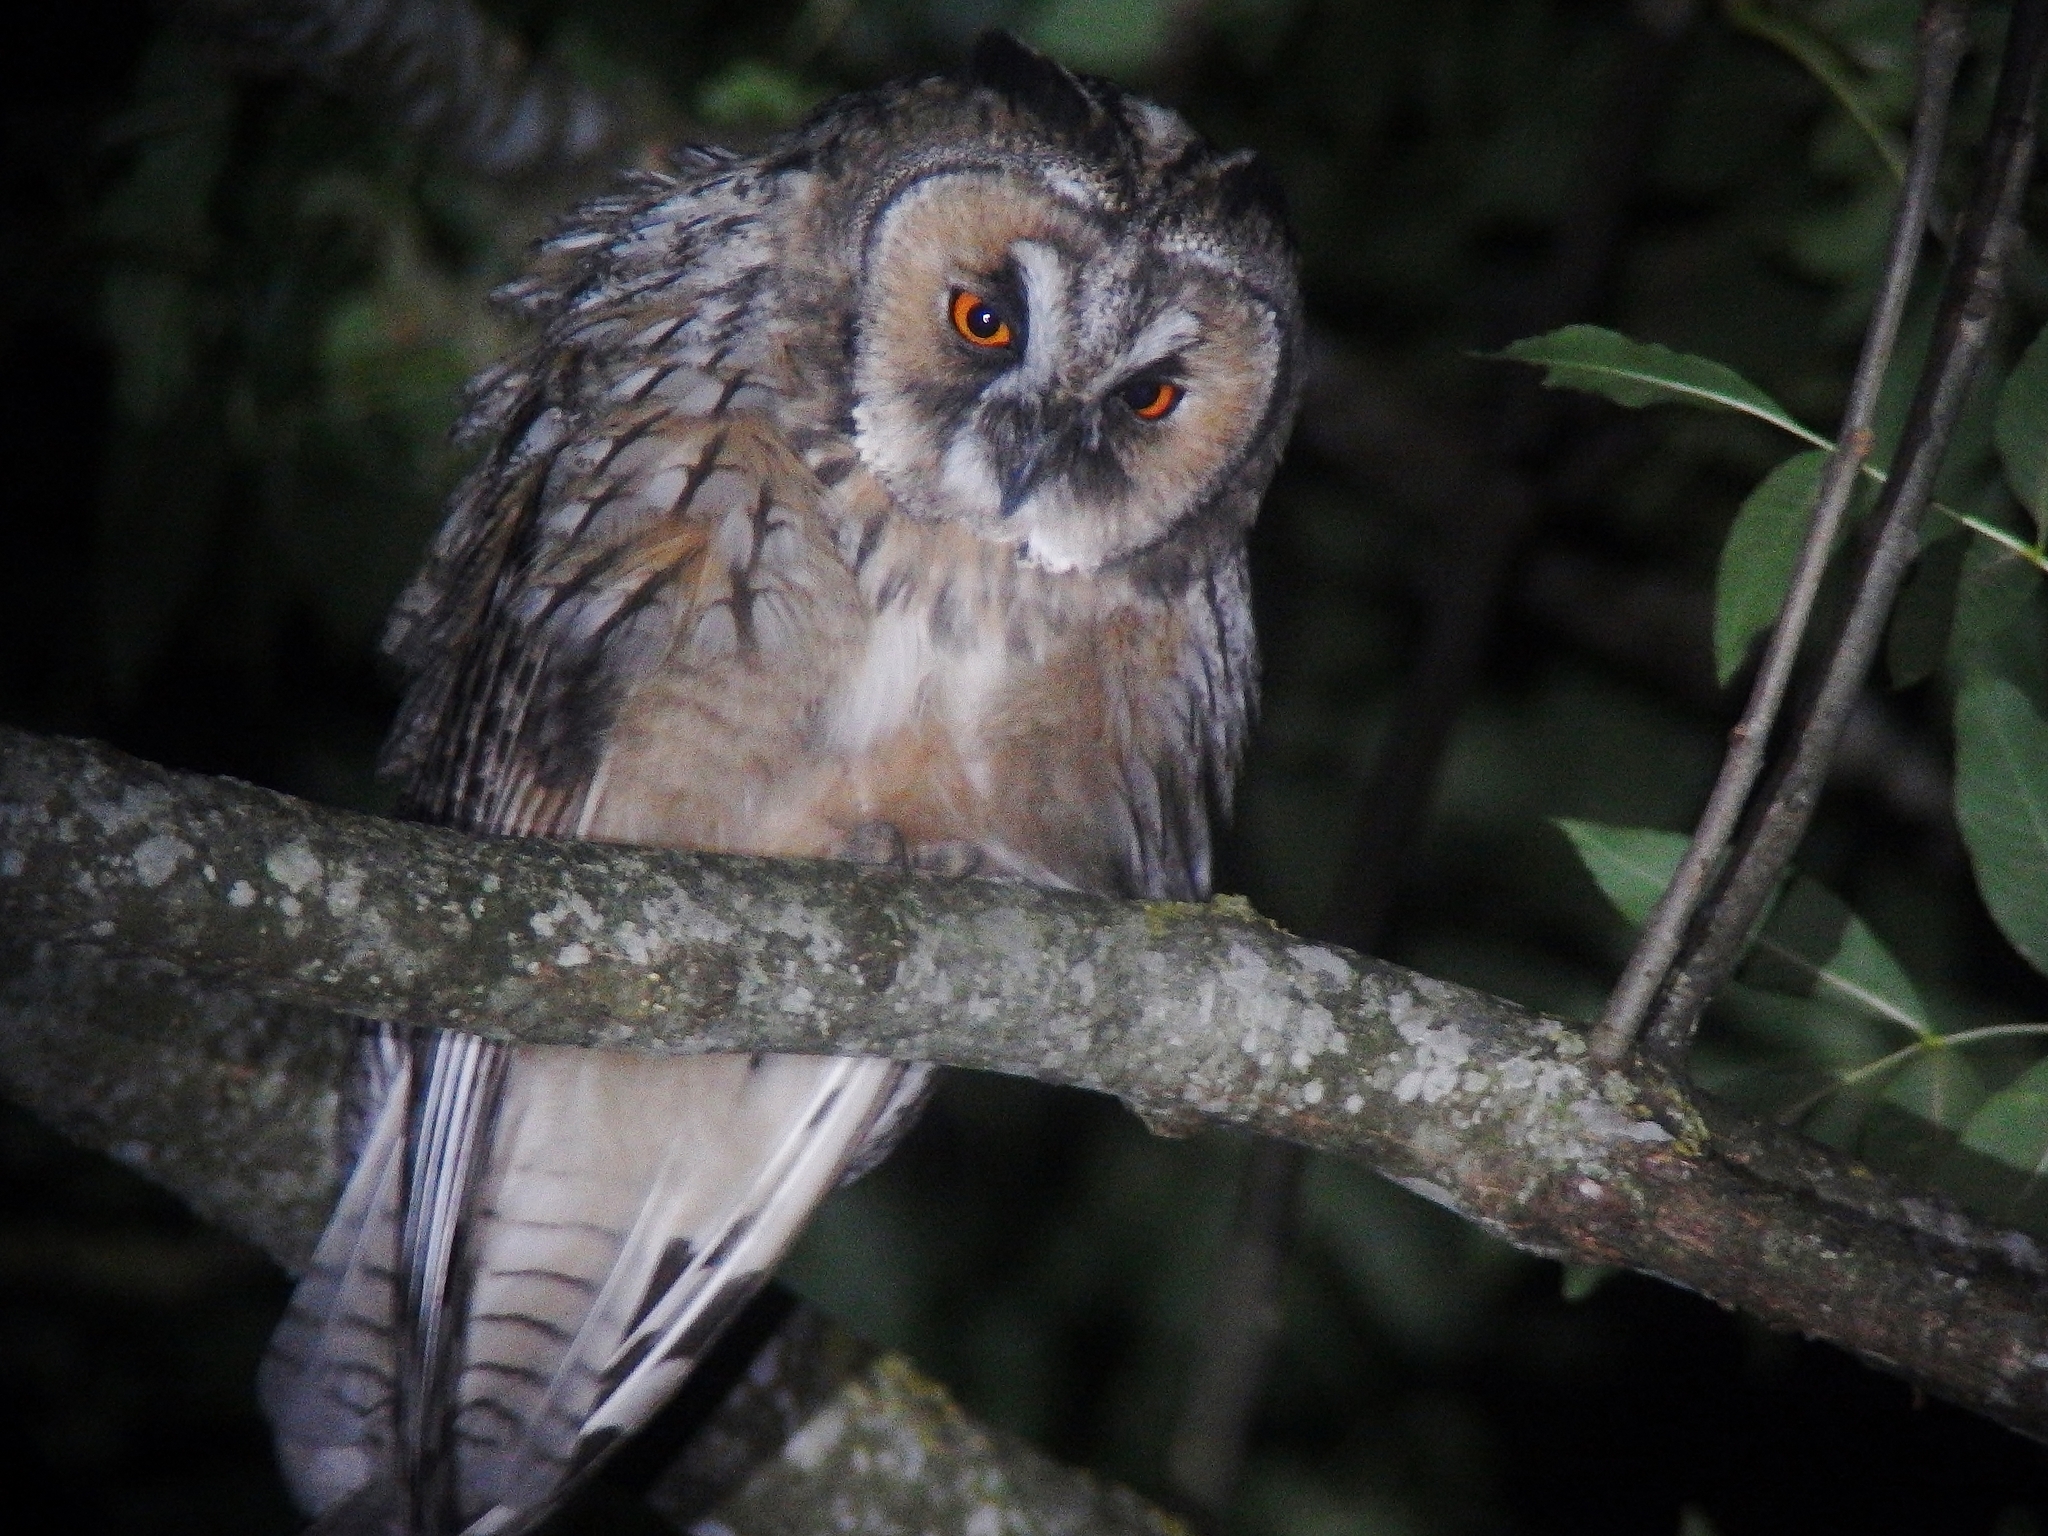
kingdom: Animalia
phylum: Chordata
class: Aves
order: Strigiformes
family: Strigidae
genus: Asio
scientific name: Asio otus
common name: Long-eared owl
